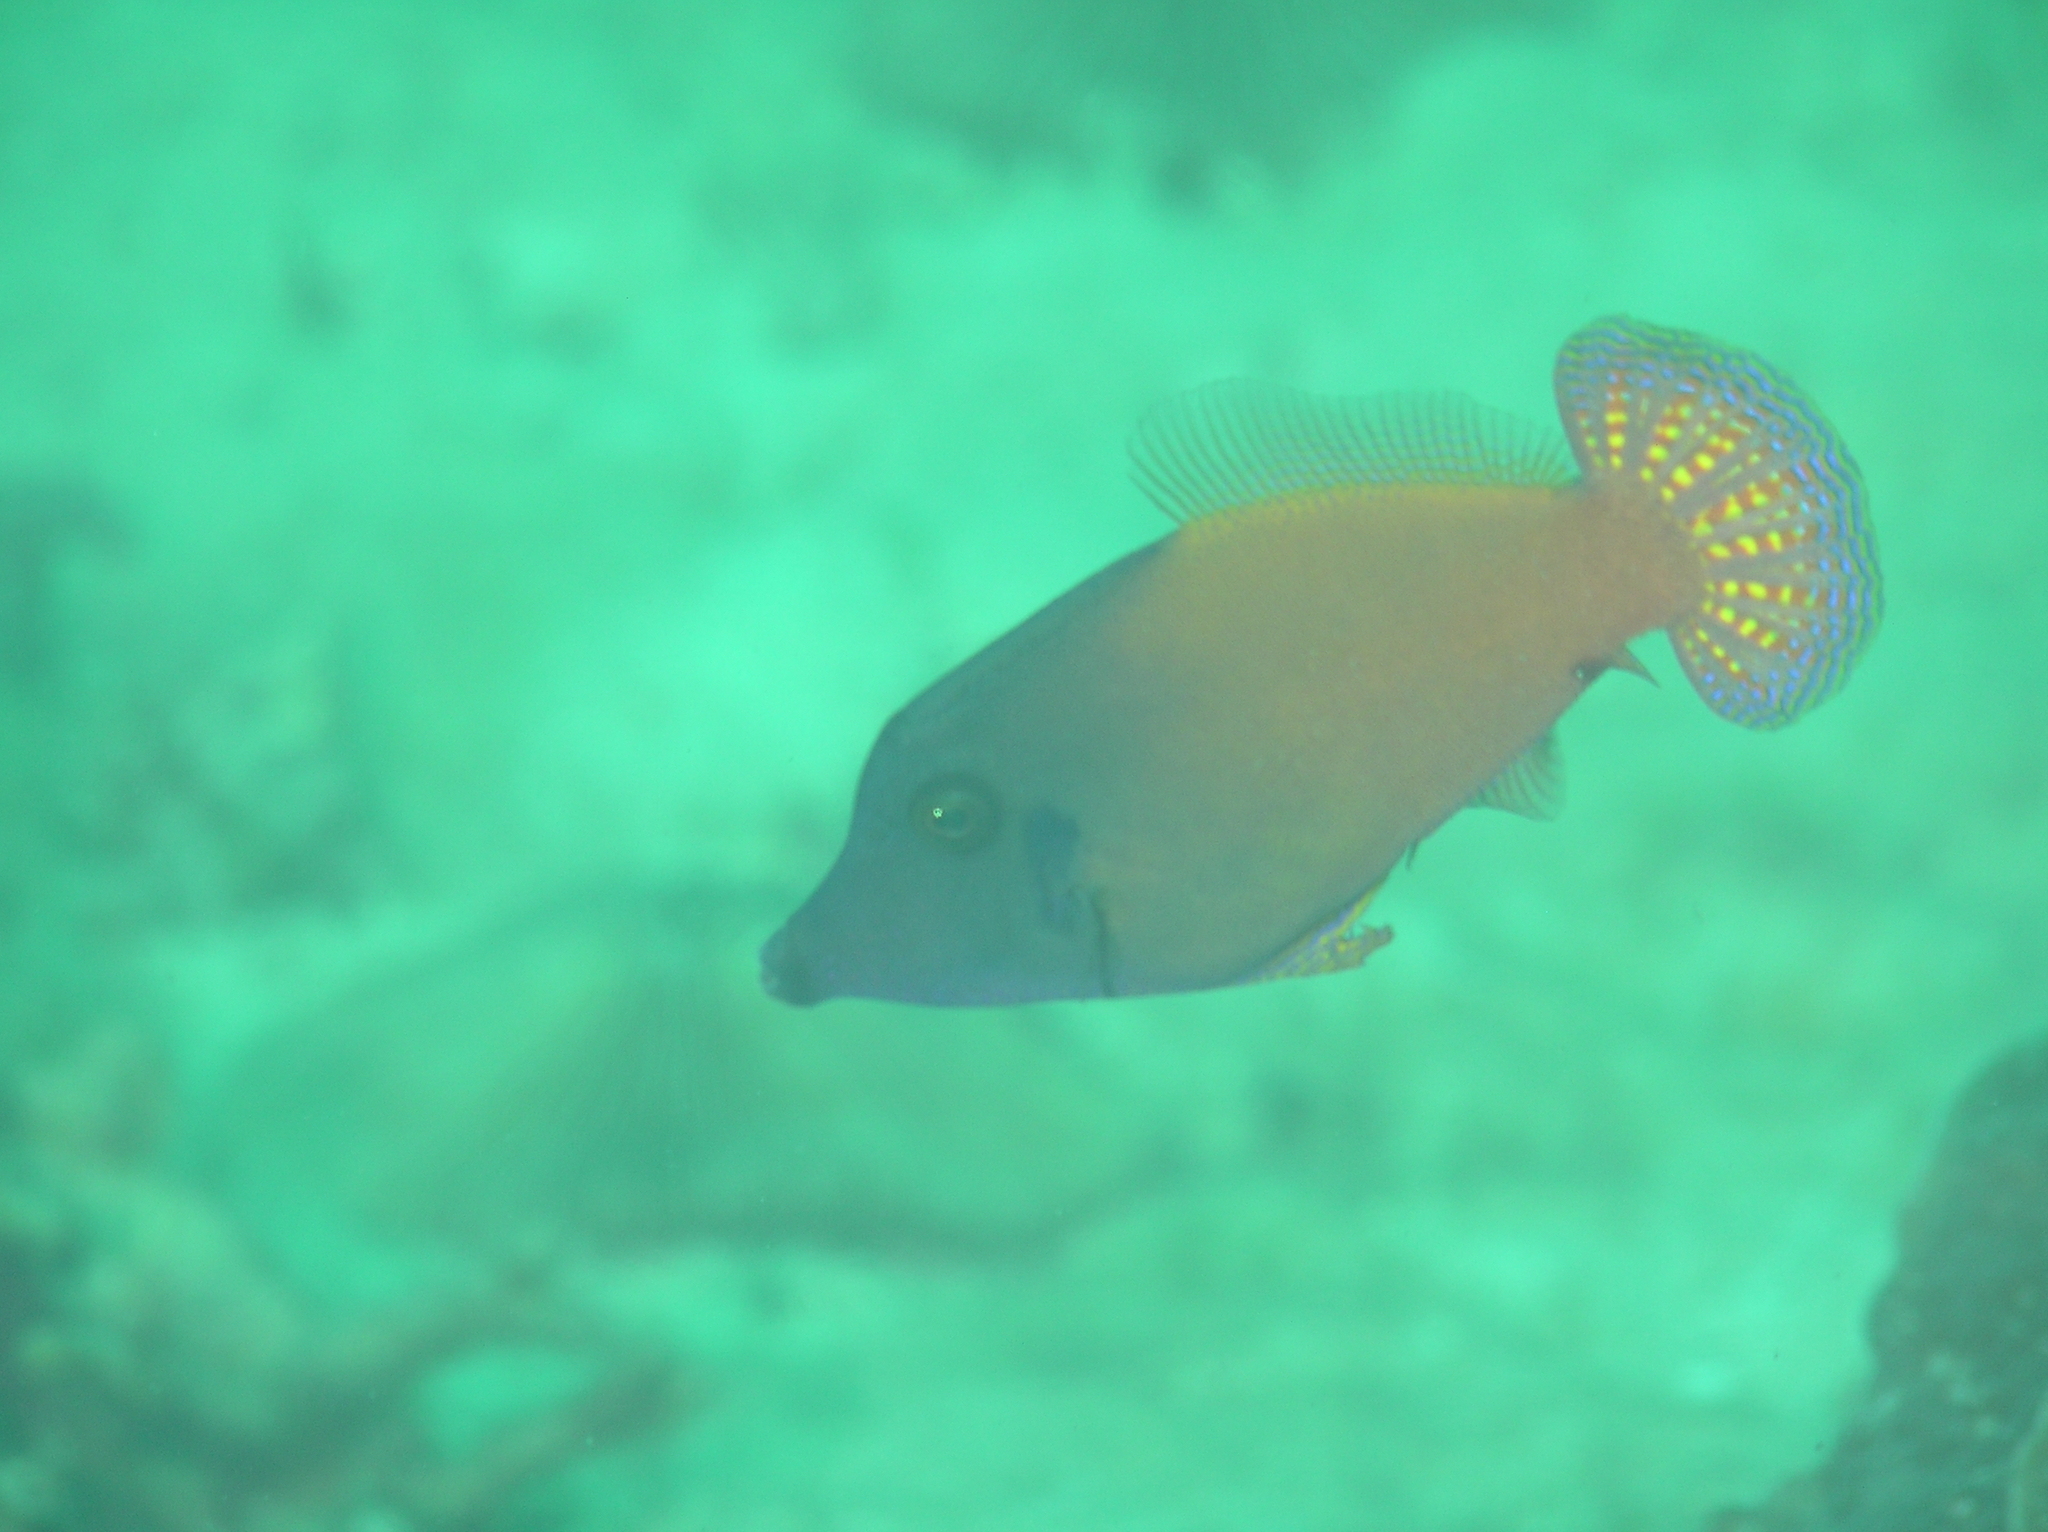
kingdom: Animalia
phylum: Chordata
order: Tetraodontiformes
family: Monacanthidae
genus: Pervagor
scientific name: Pervagor janthinosoma
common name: Blackbar filefish
